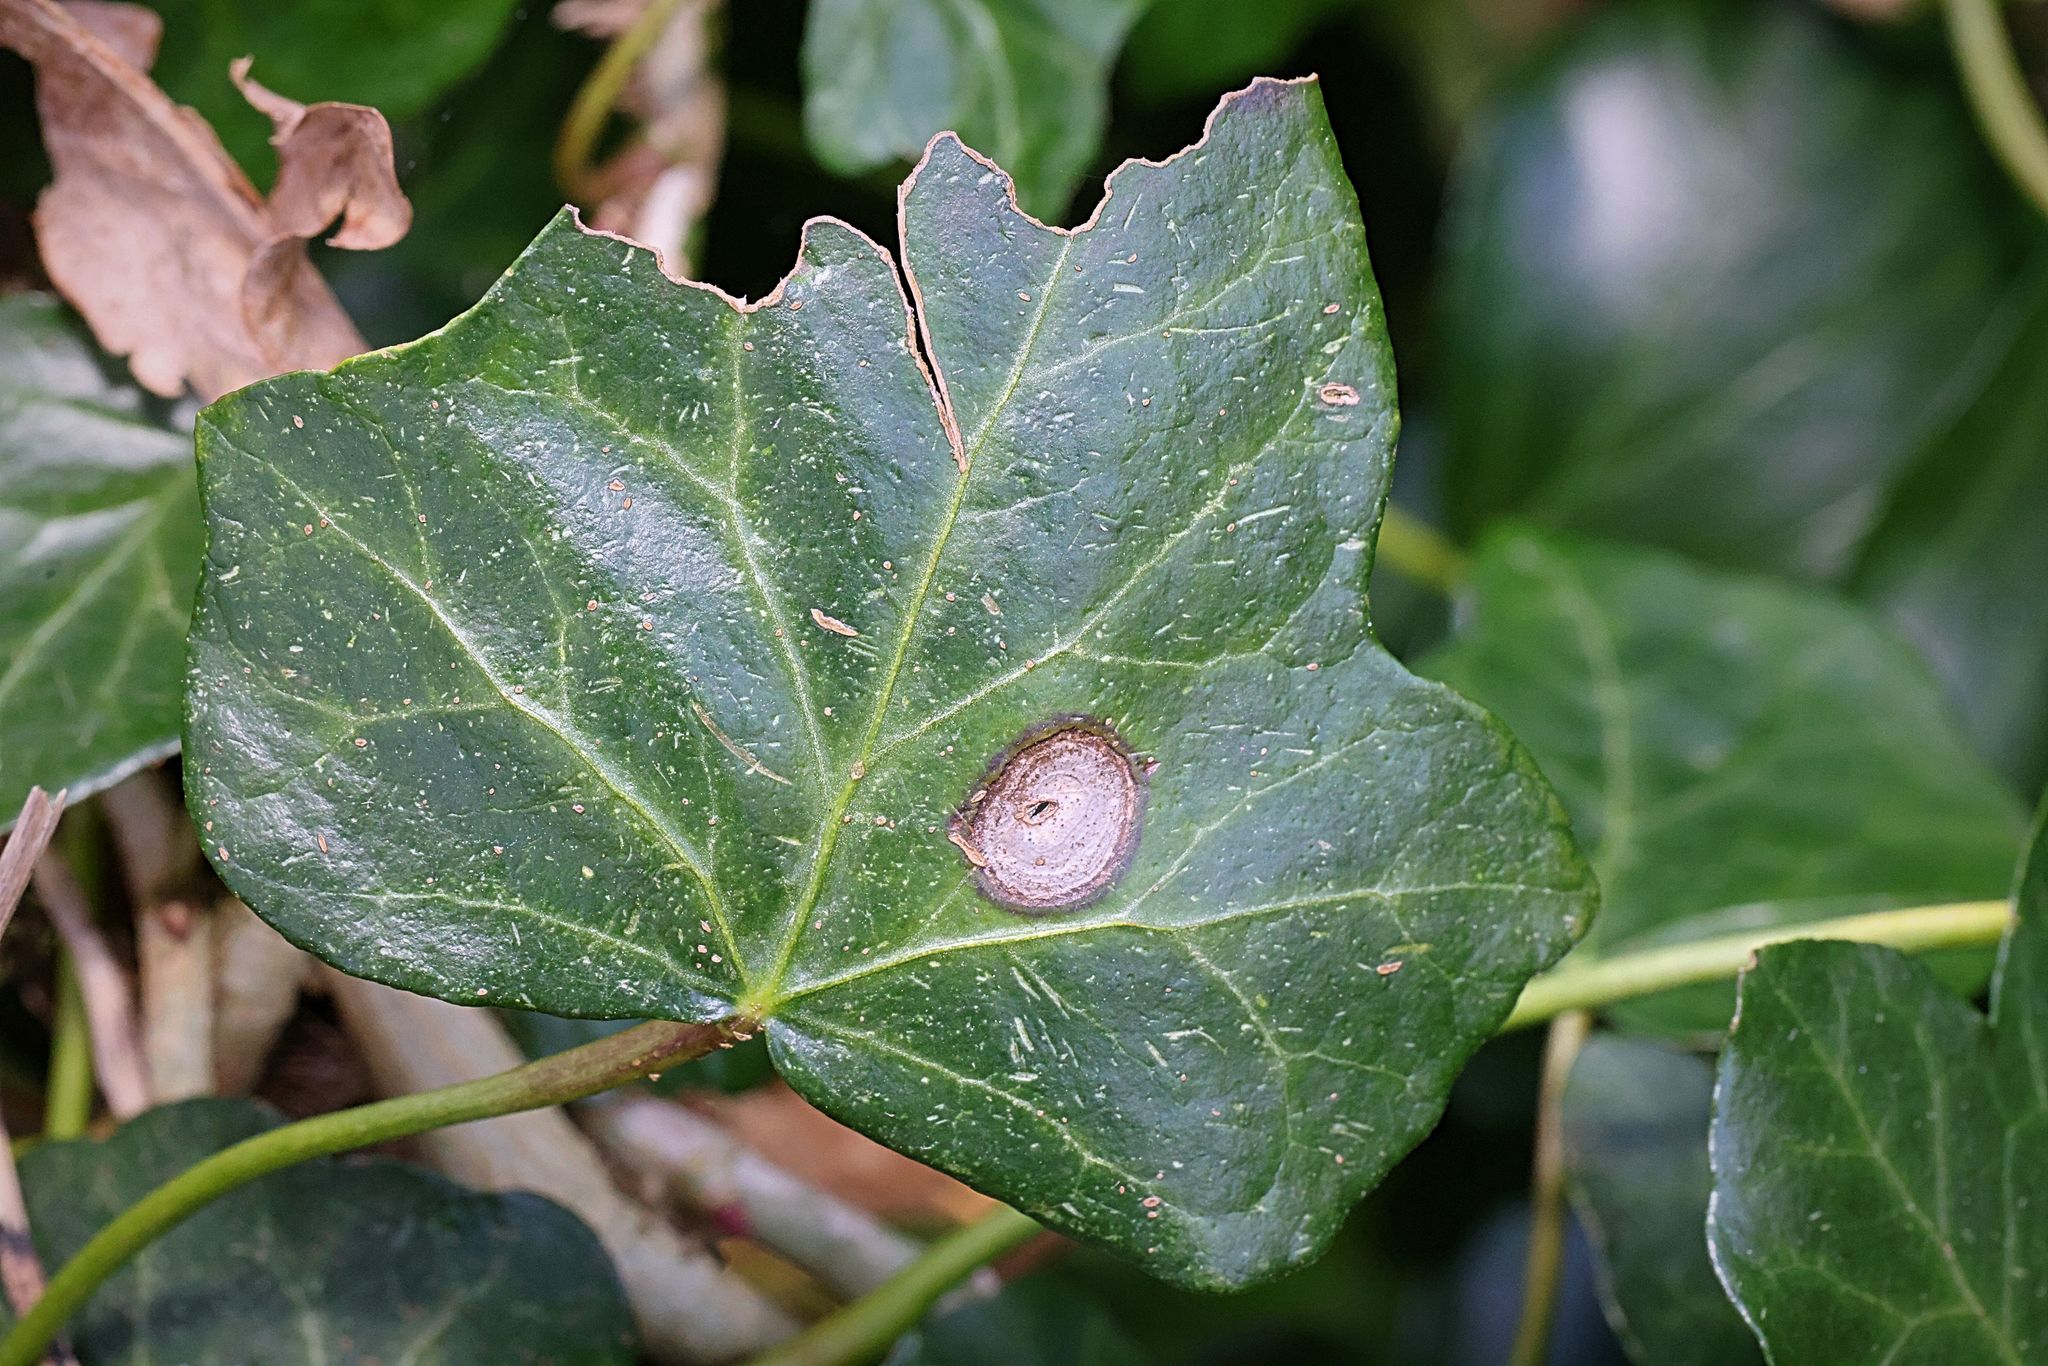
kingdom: Fungi
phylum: Ascomycota
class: Dothideomycetes
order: Pleosporales
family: Didymellaceae
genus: Boeremia
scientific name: Boeremia hedericola
